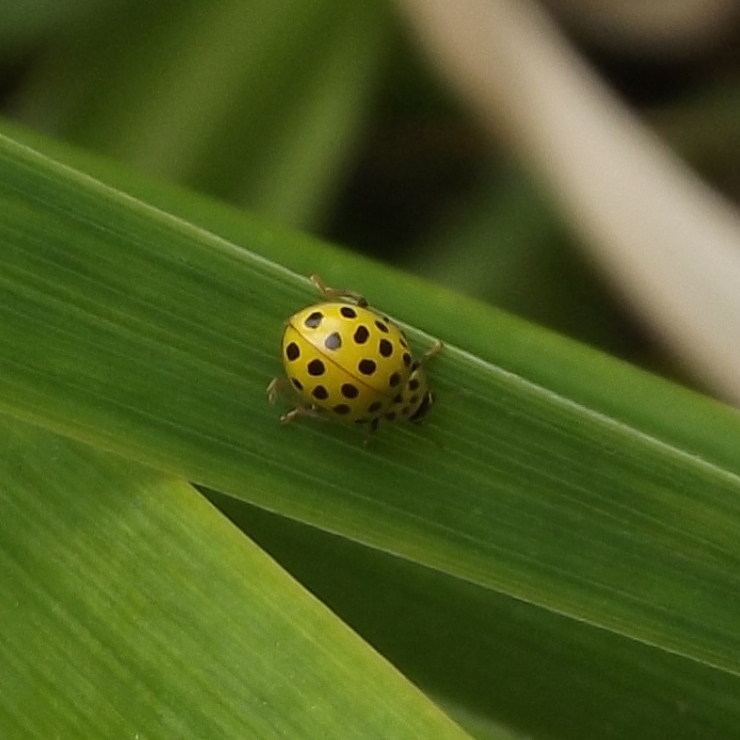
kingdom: Animalia
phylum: Arthropoda
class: Insecta
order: Coleoptera
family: Coccinellidae
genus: Psyllobora
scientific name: Psyllobora vigintiduopunctata
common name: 22-spot ladybird
